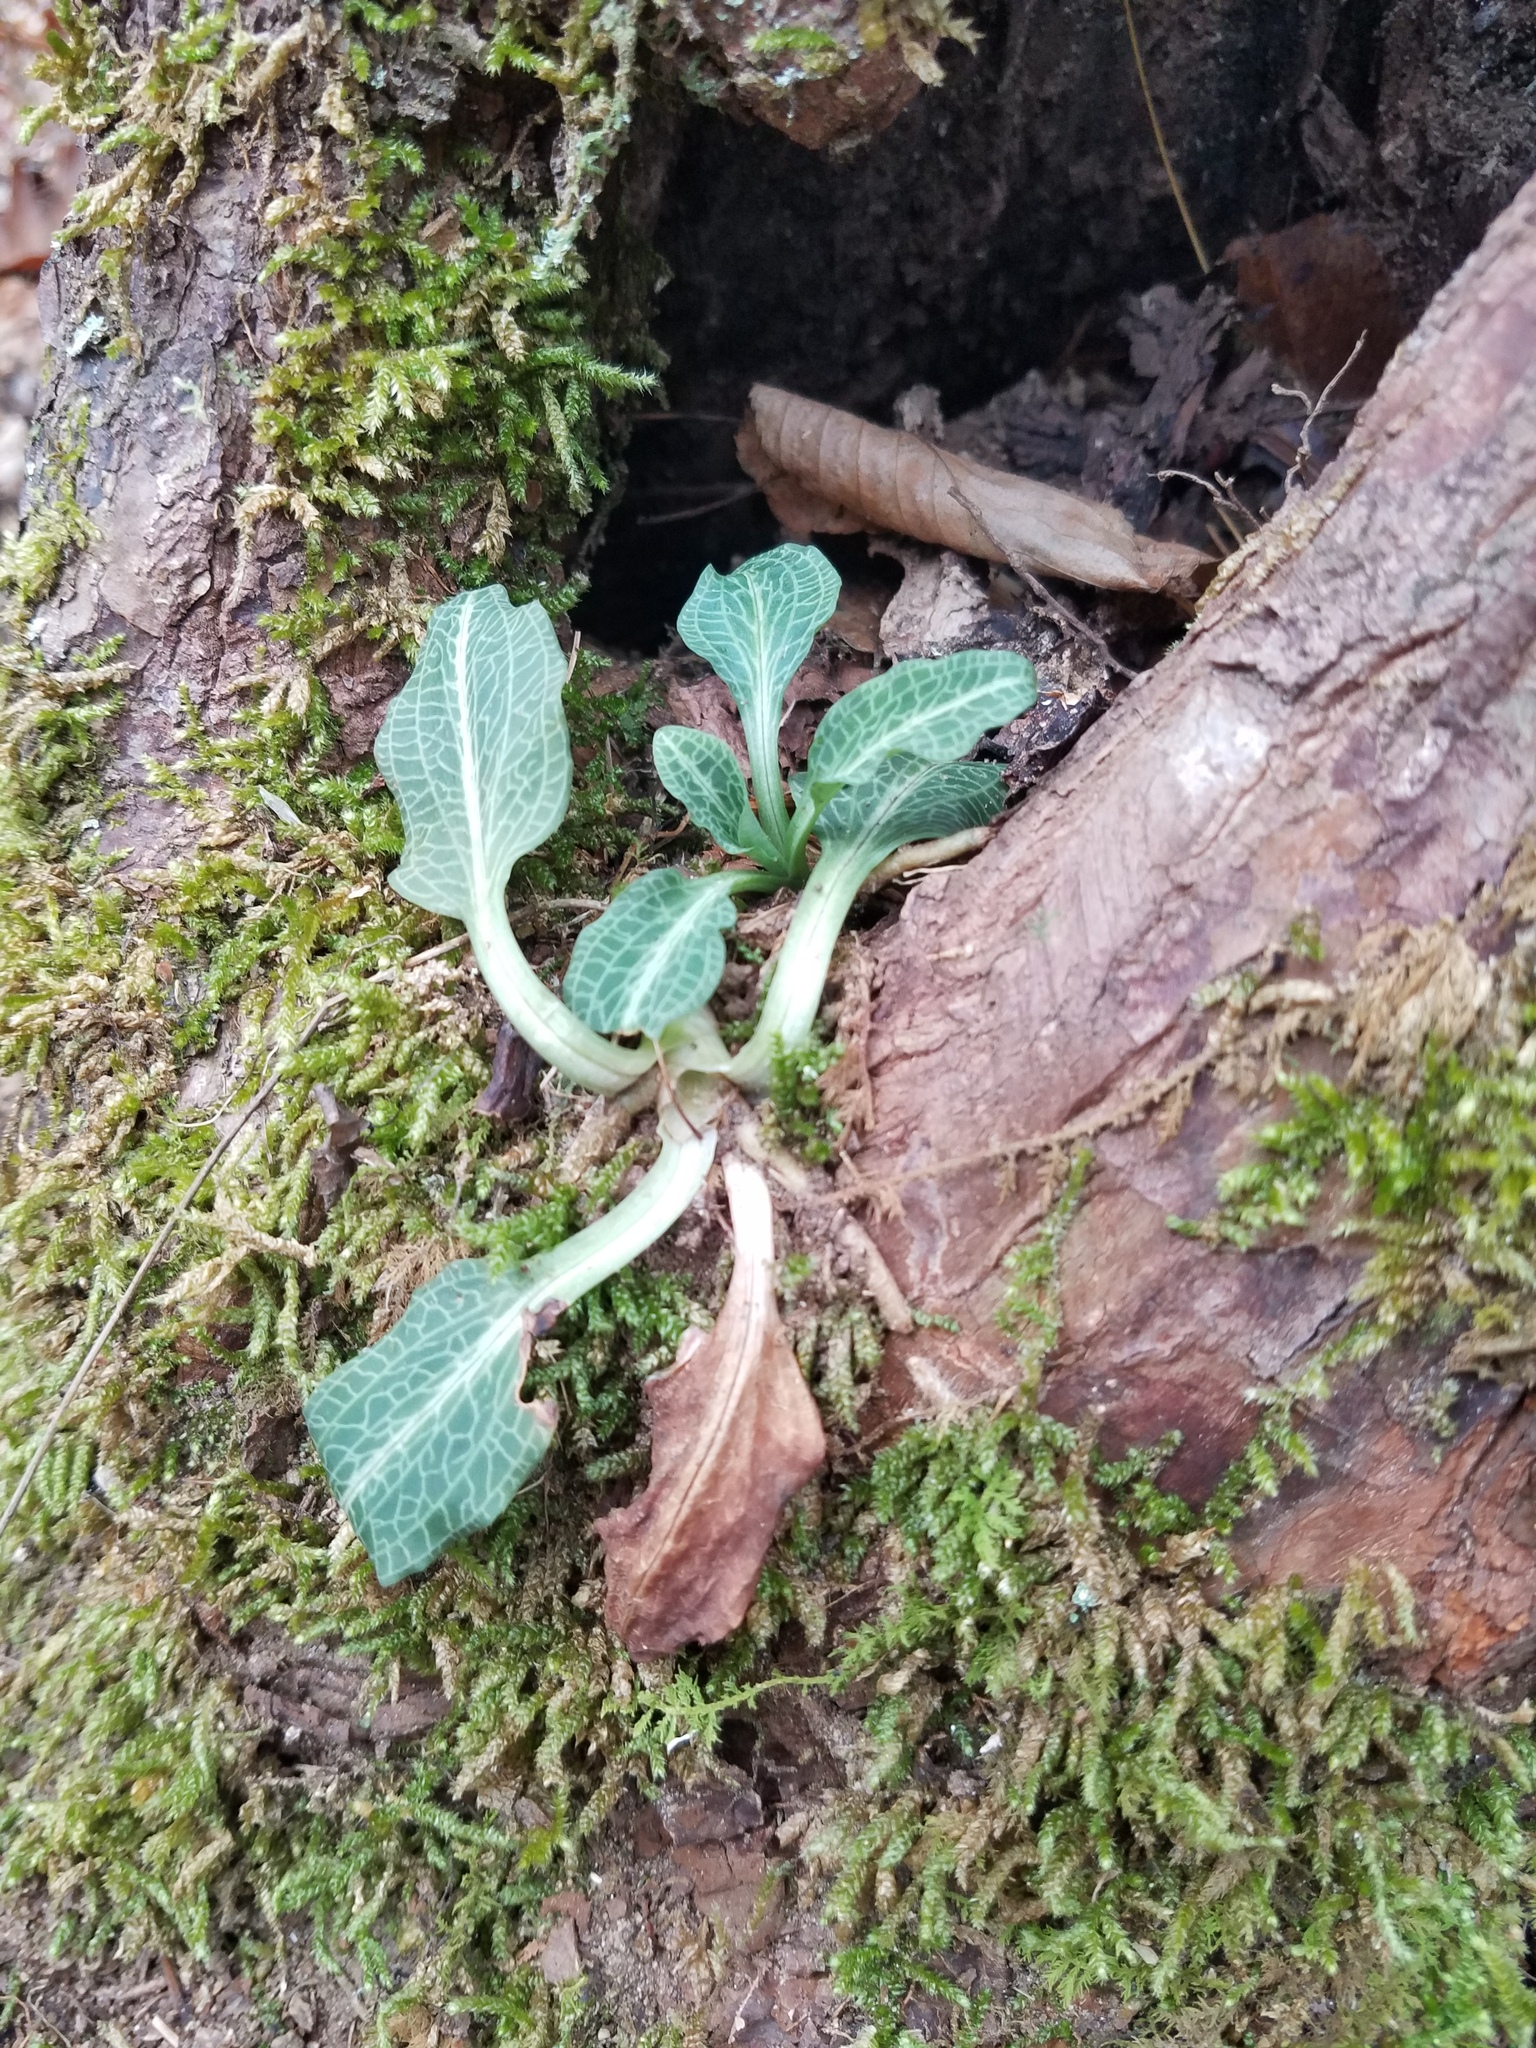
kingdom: Plantae
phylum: Tracheophyta
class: Liliopsida
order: Asparagales
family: Orchidaceae
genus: Goodyera
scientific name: Goodyera pubescens
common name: Downy rattlesnake-plantain
